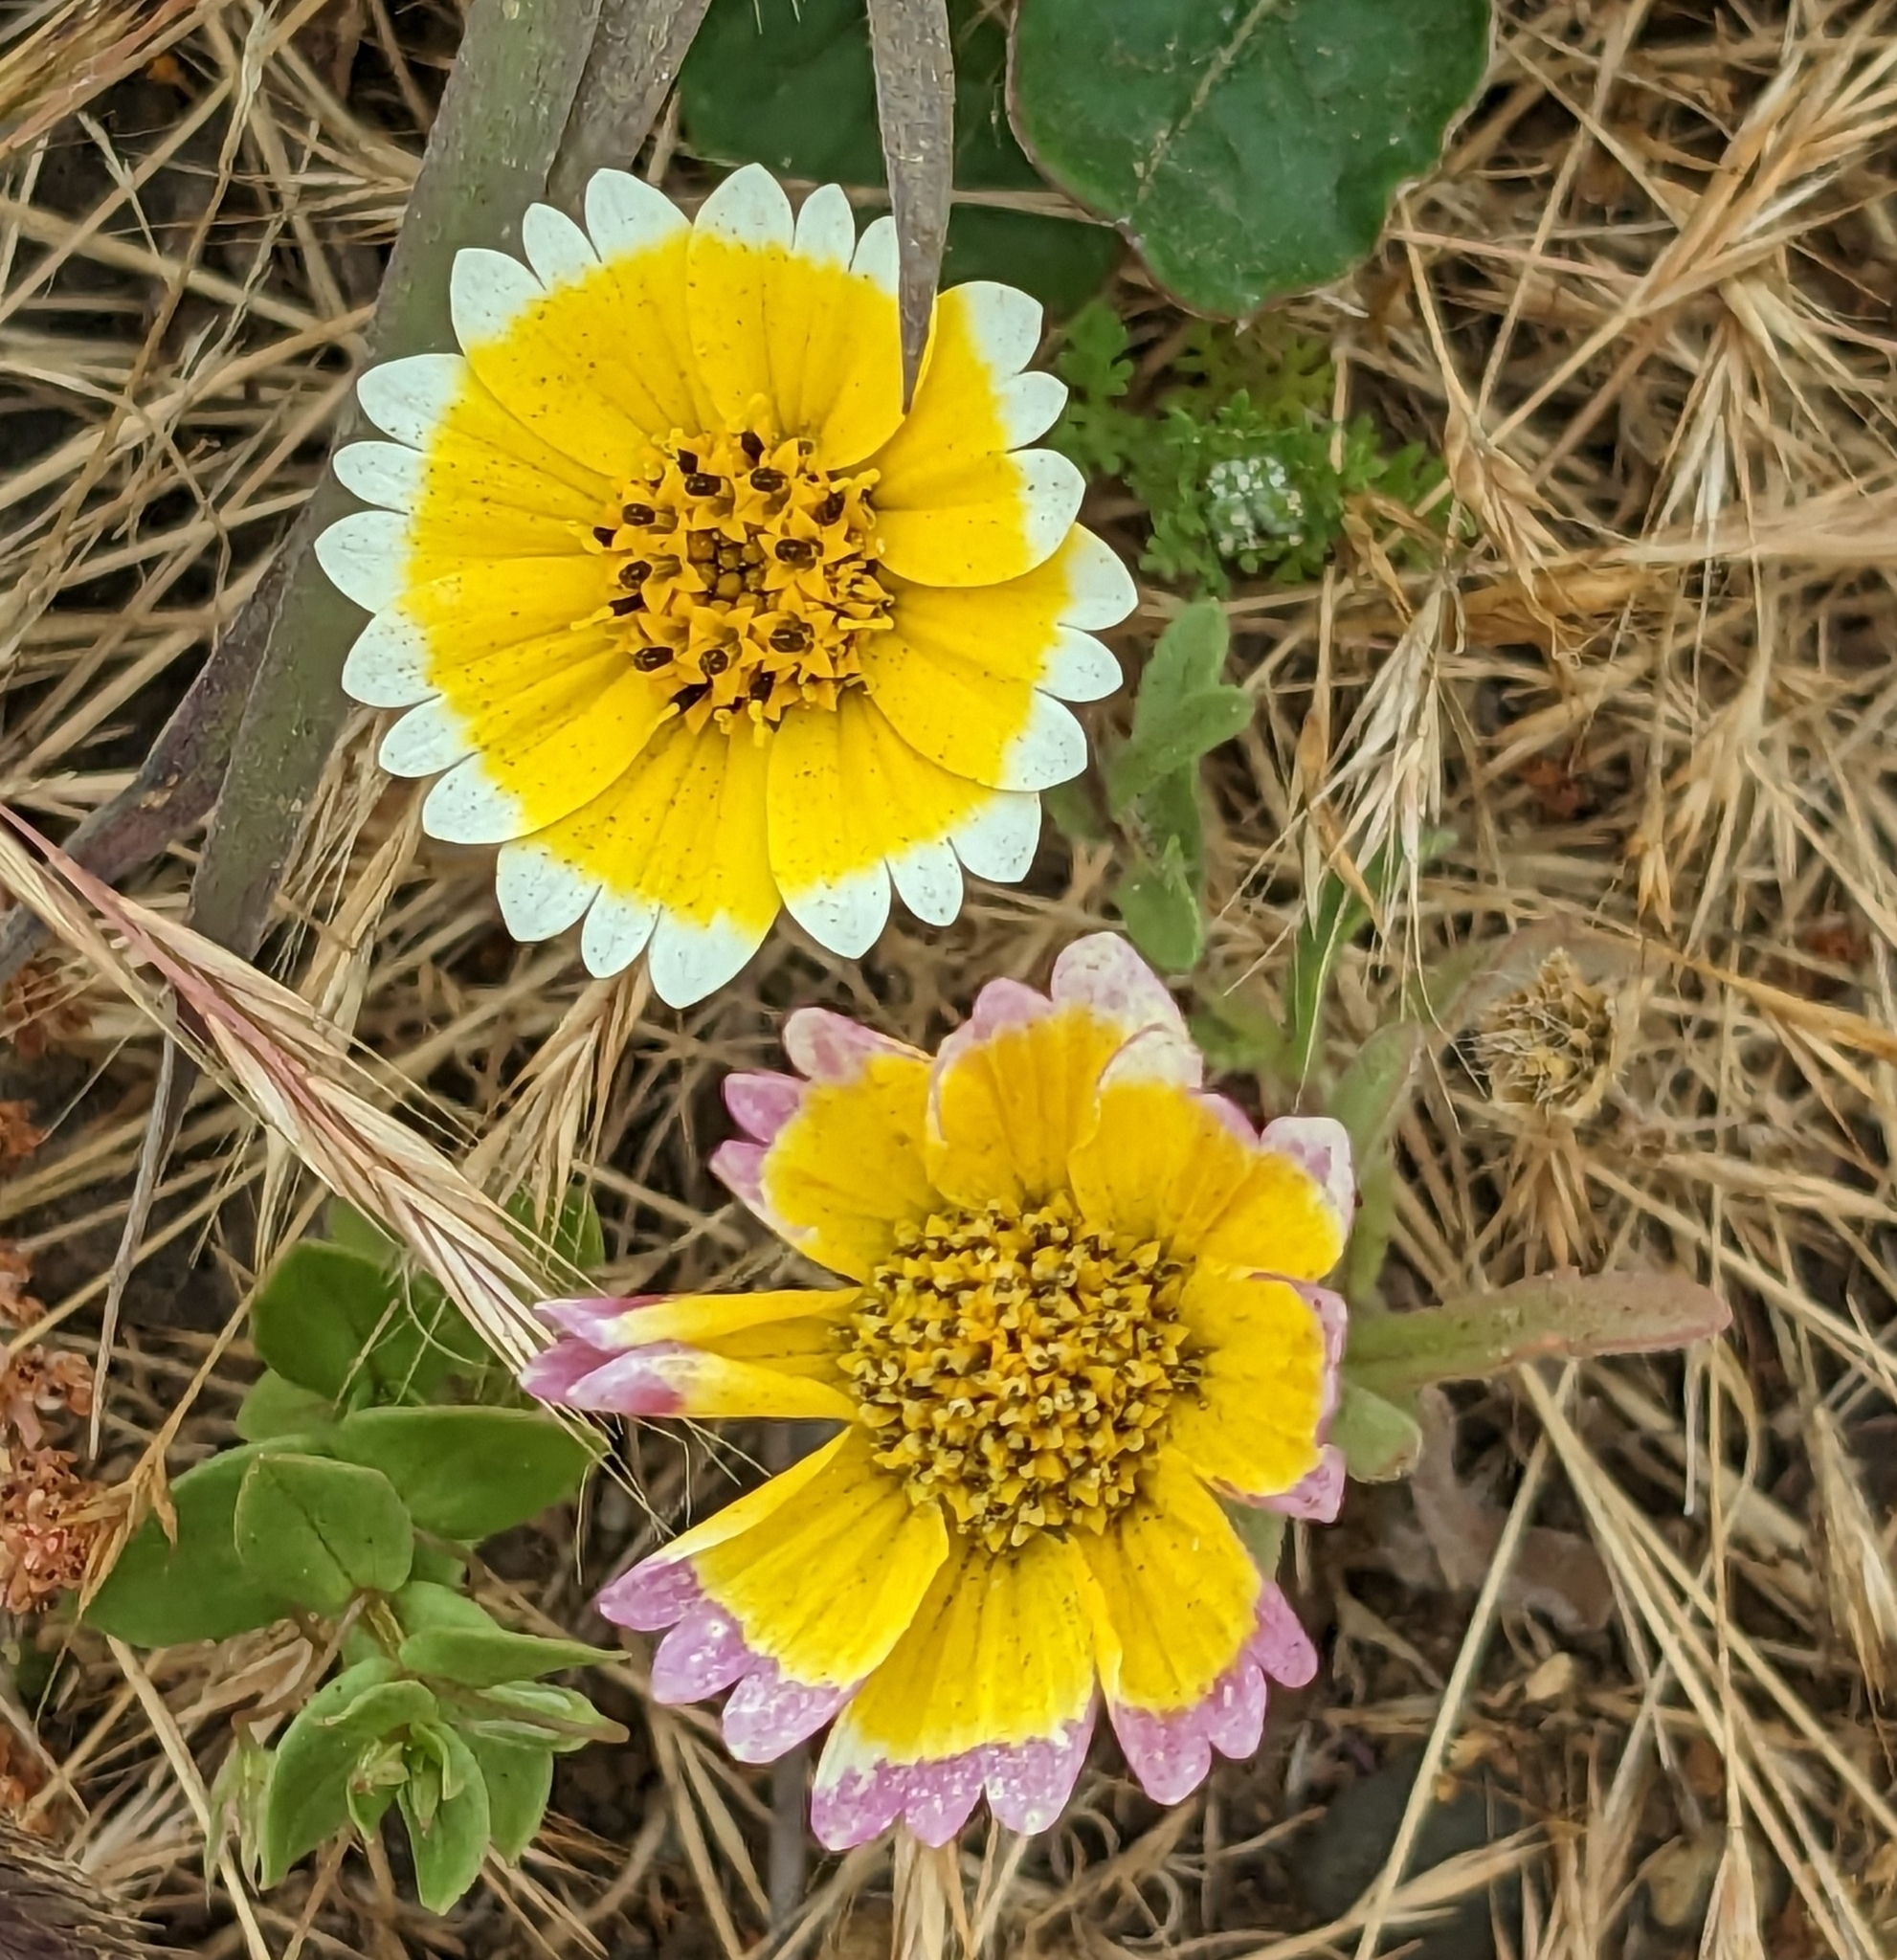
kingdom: Plantae
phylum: Tracheophyta
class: Magnoliopsida
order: Asterales
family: Asteraceae
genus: Layia
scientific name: Layia platyglossa
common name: Tidy-tips
